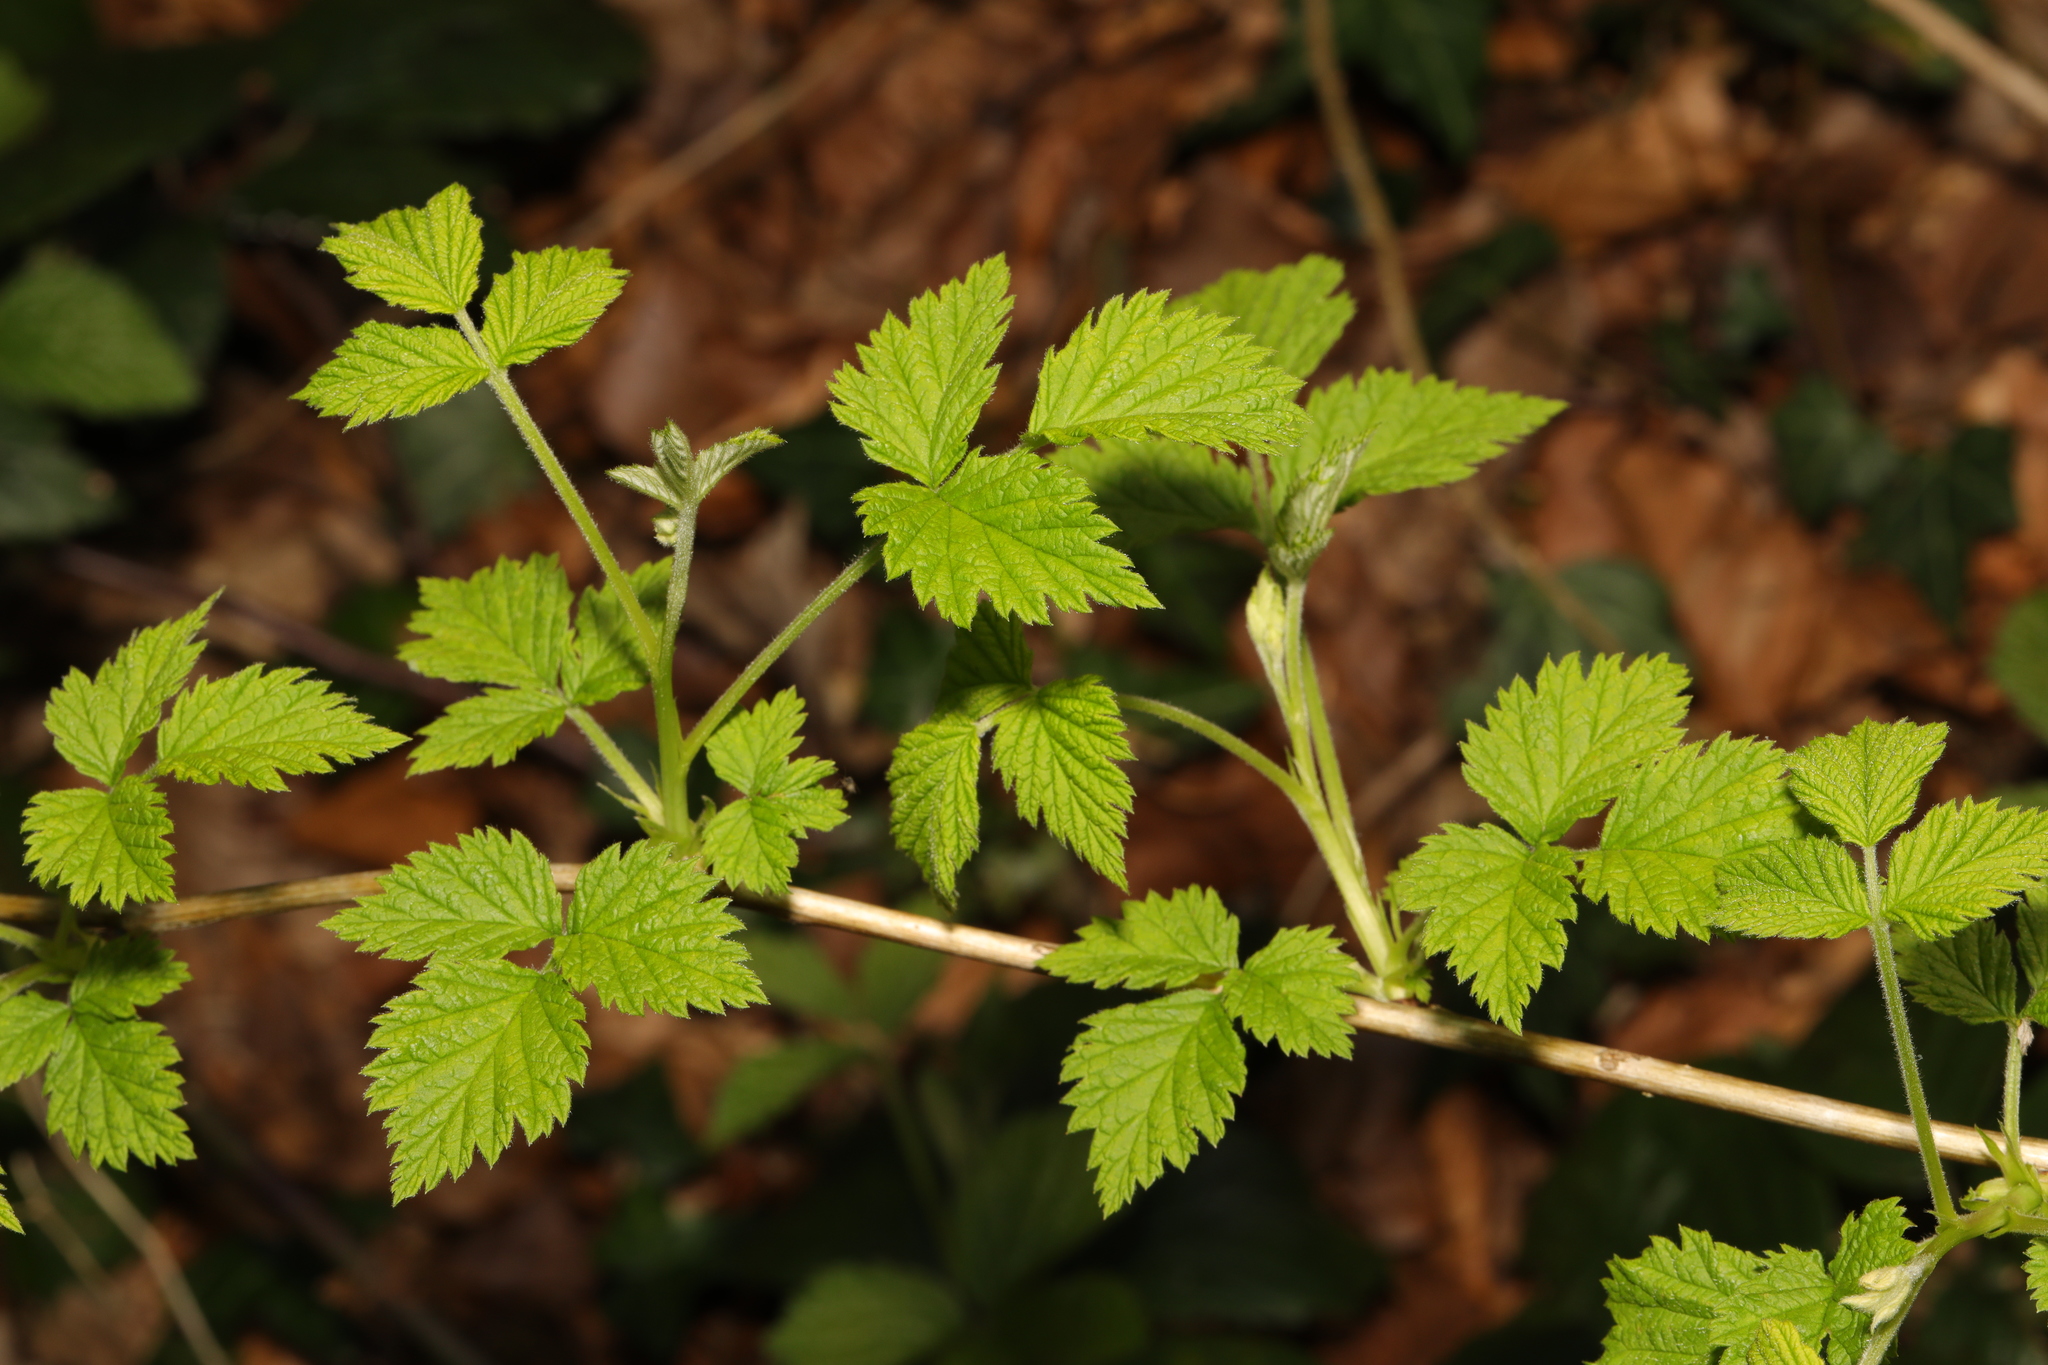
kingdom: Plantae
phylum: Tracheophyta
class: Magnoliopsida
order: Rosales
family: Rosaceae
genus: Rubus
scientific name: Rubus idaeus
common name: Raspberry
